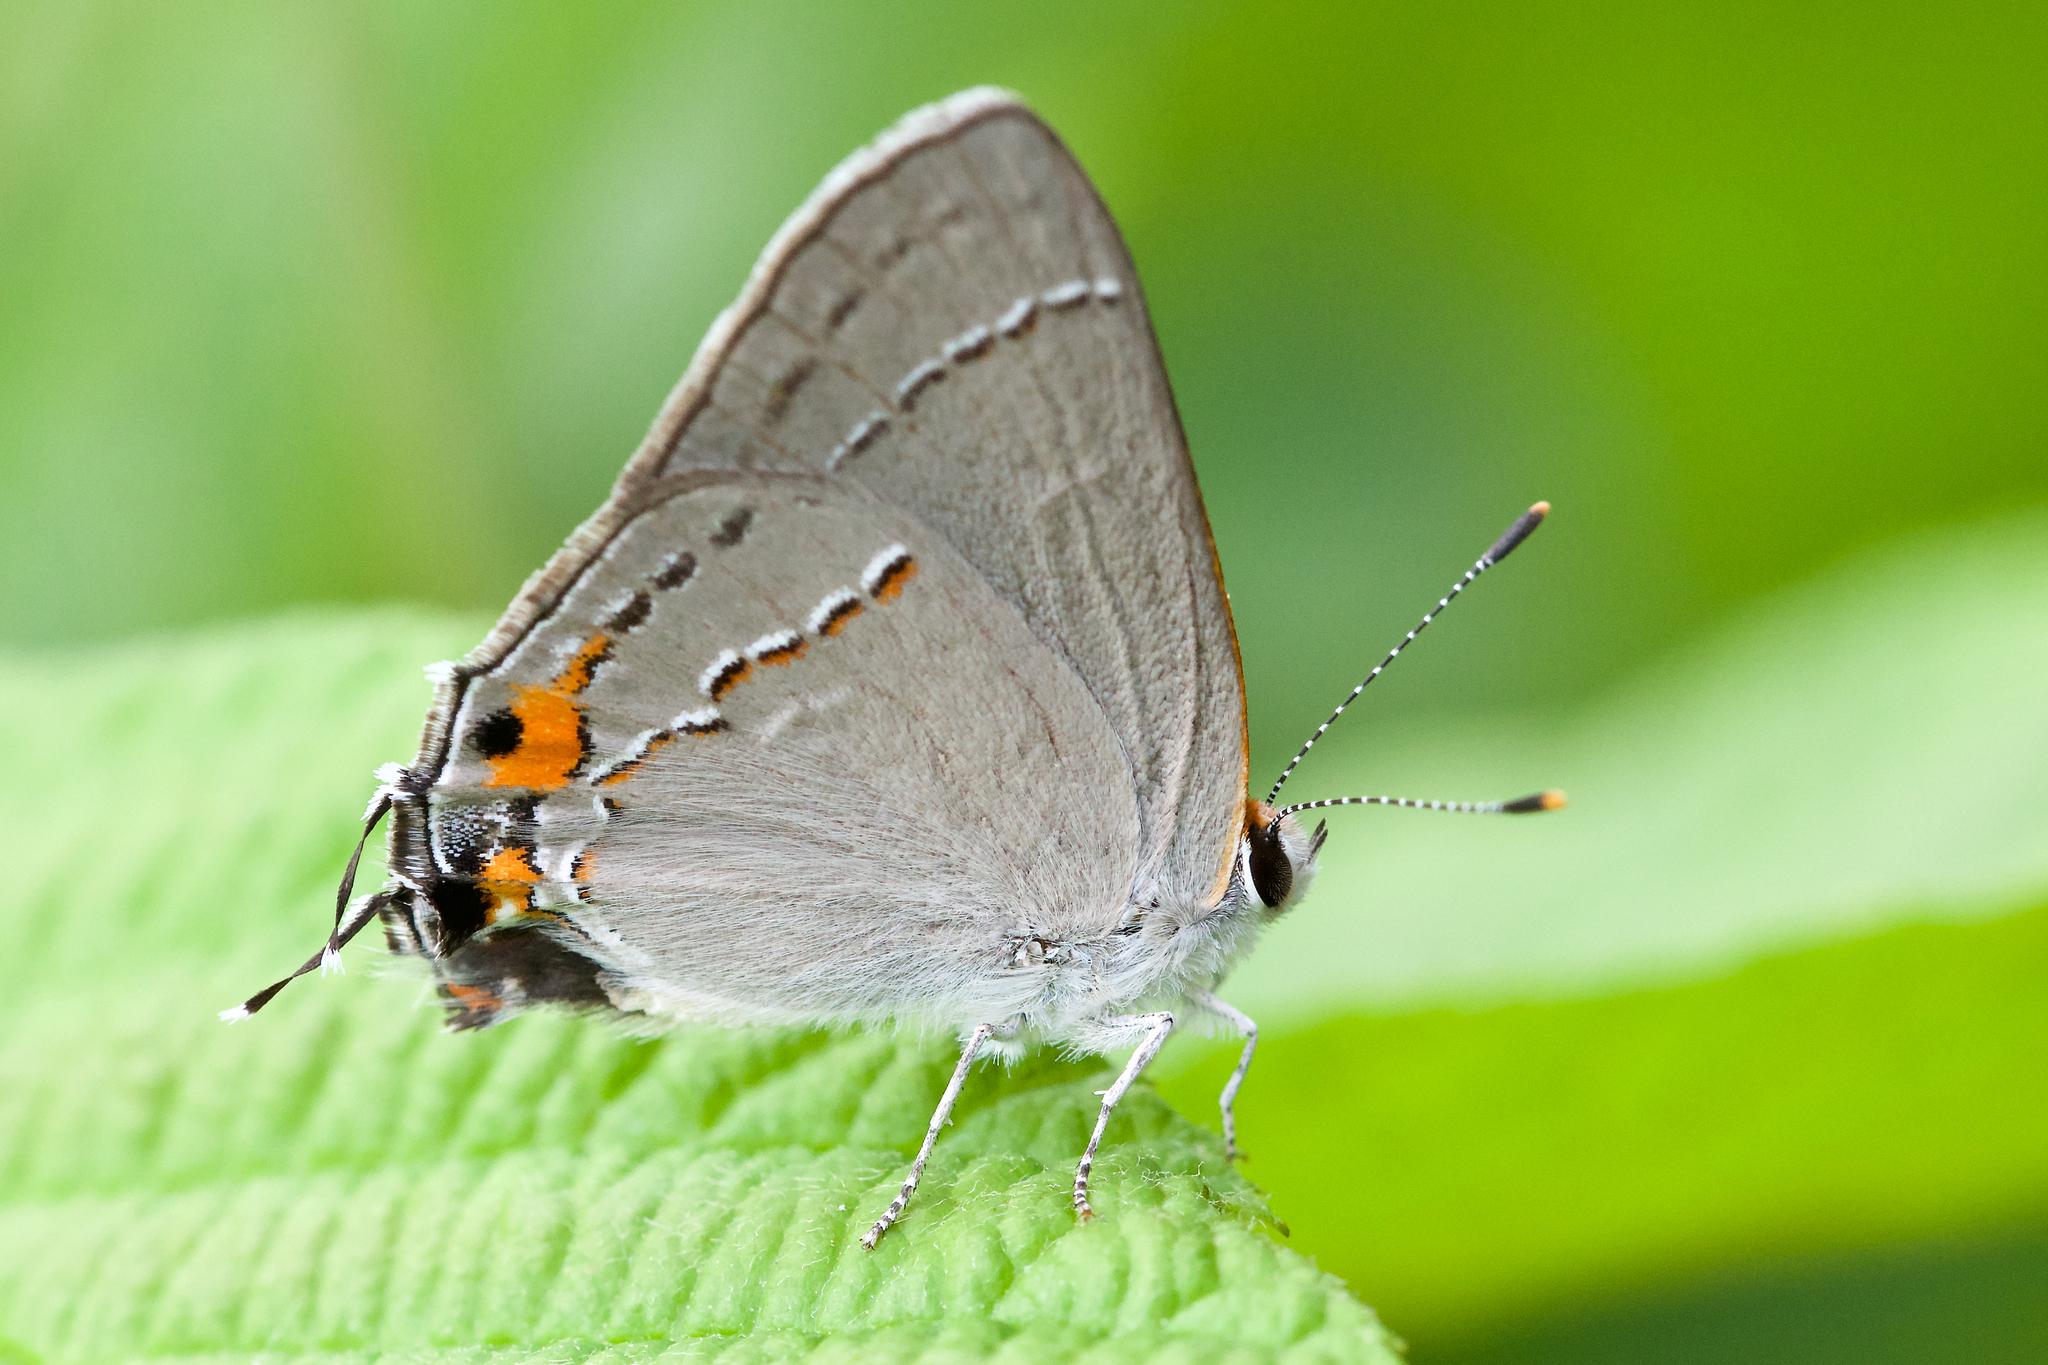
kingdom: Animalia
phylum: Arthropoda
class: Insecta
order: Lepidoptera
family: Lycaenidae
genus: Strymon
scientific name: Strymon melinus
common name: Gray hairstreak
